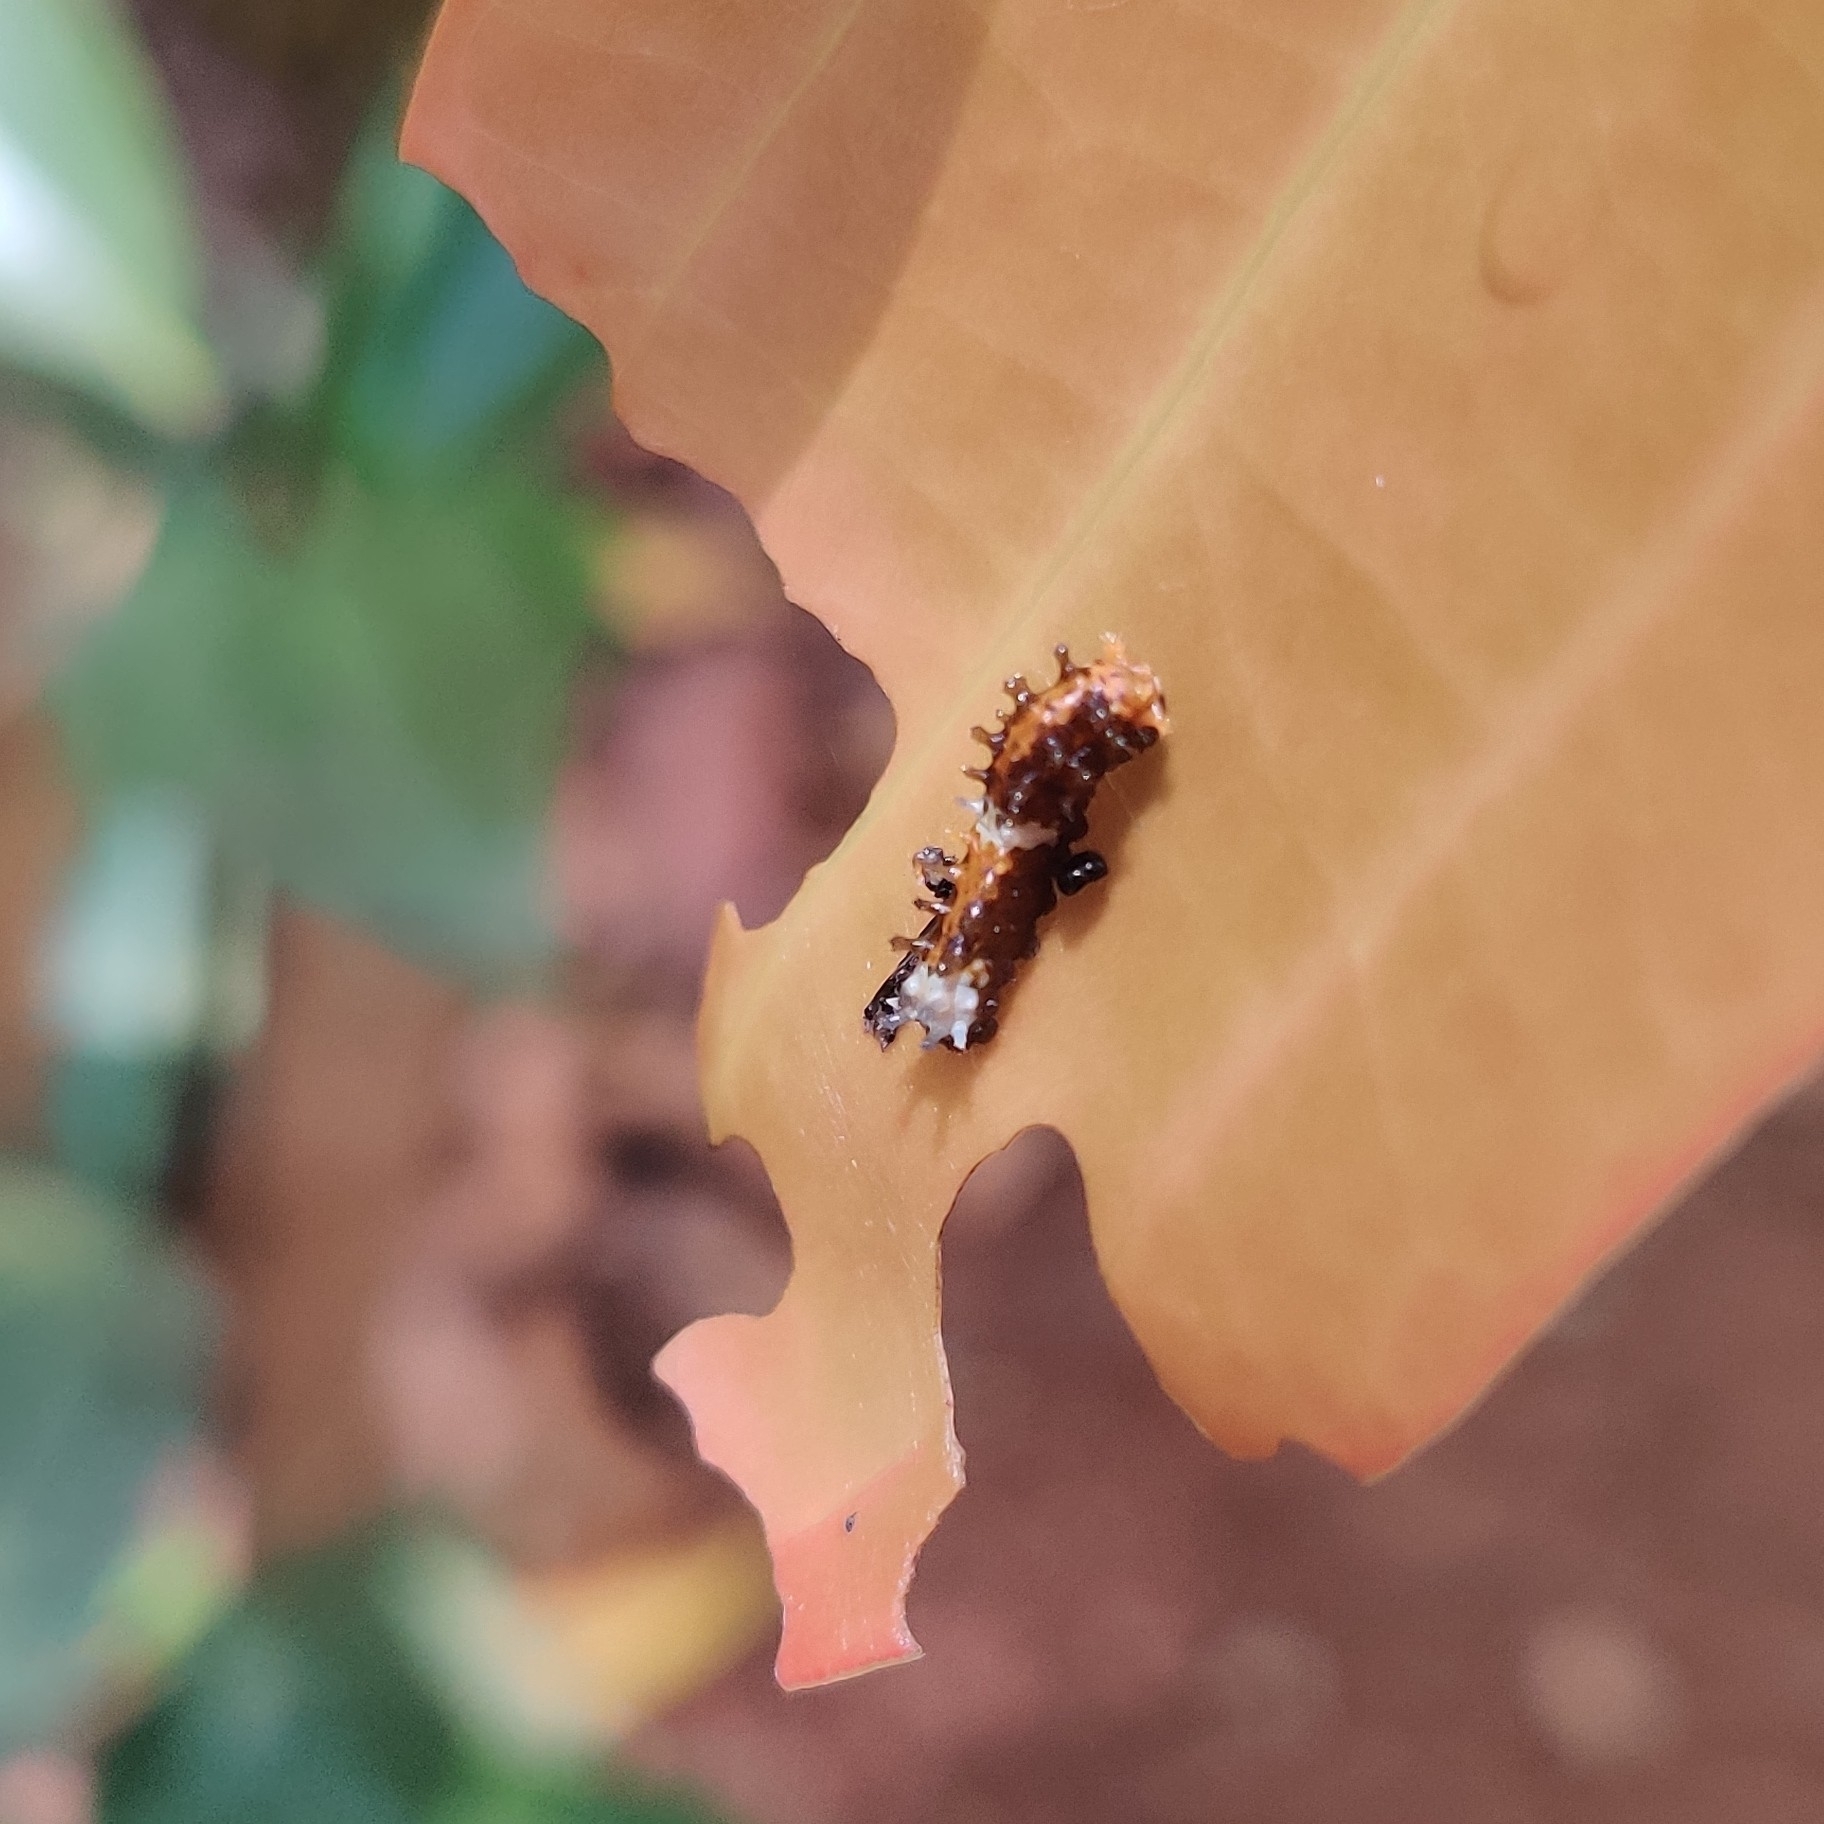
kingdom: Animalia
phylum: Arthropoda
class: Insecta
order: Lepidoptera
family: Papilionidae
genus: Chilasa
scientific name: Chilasa clytia
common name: Common mime
